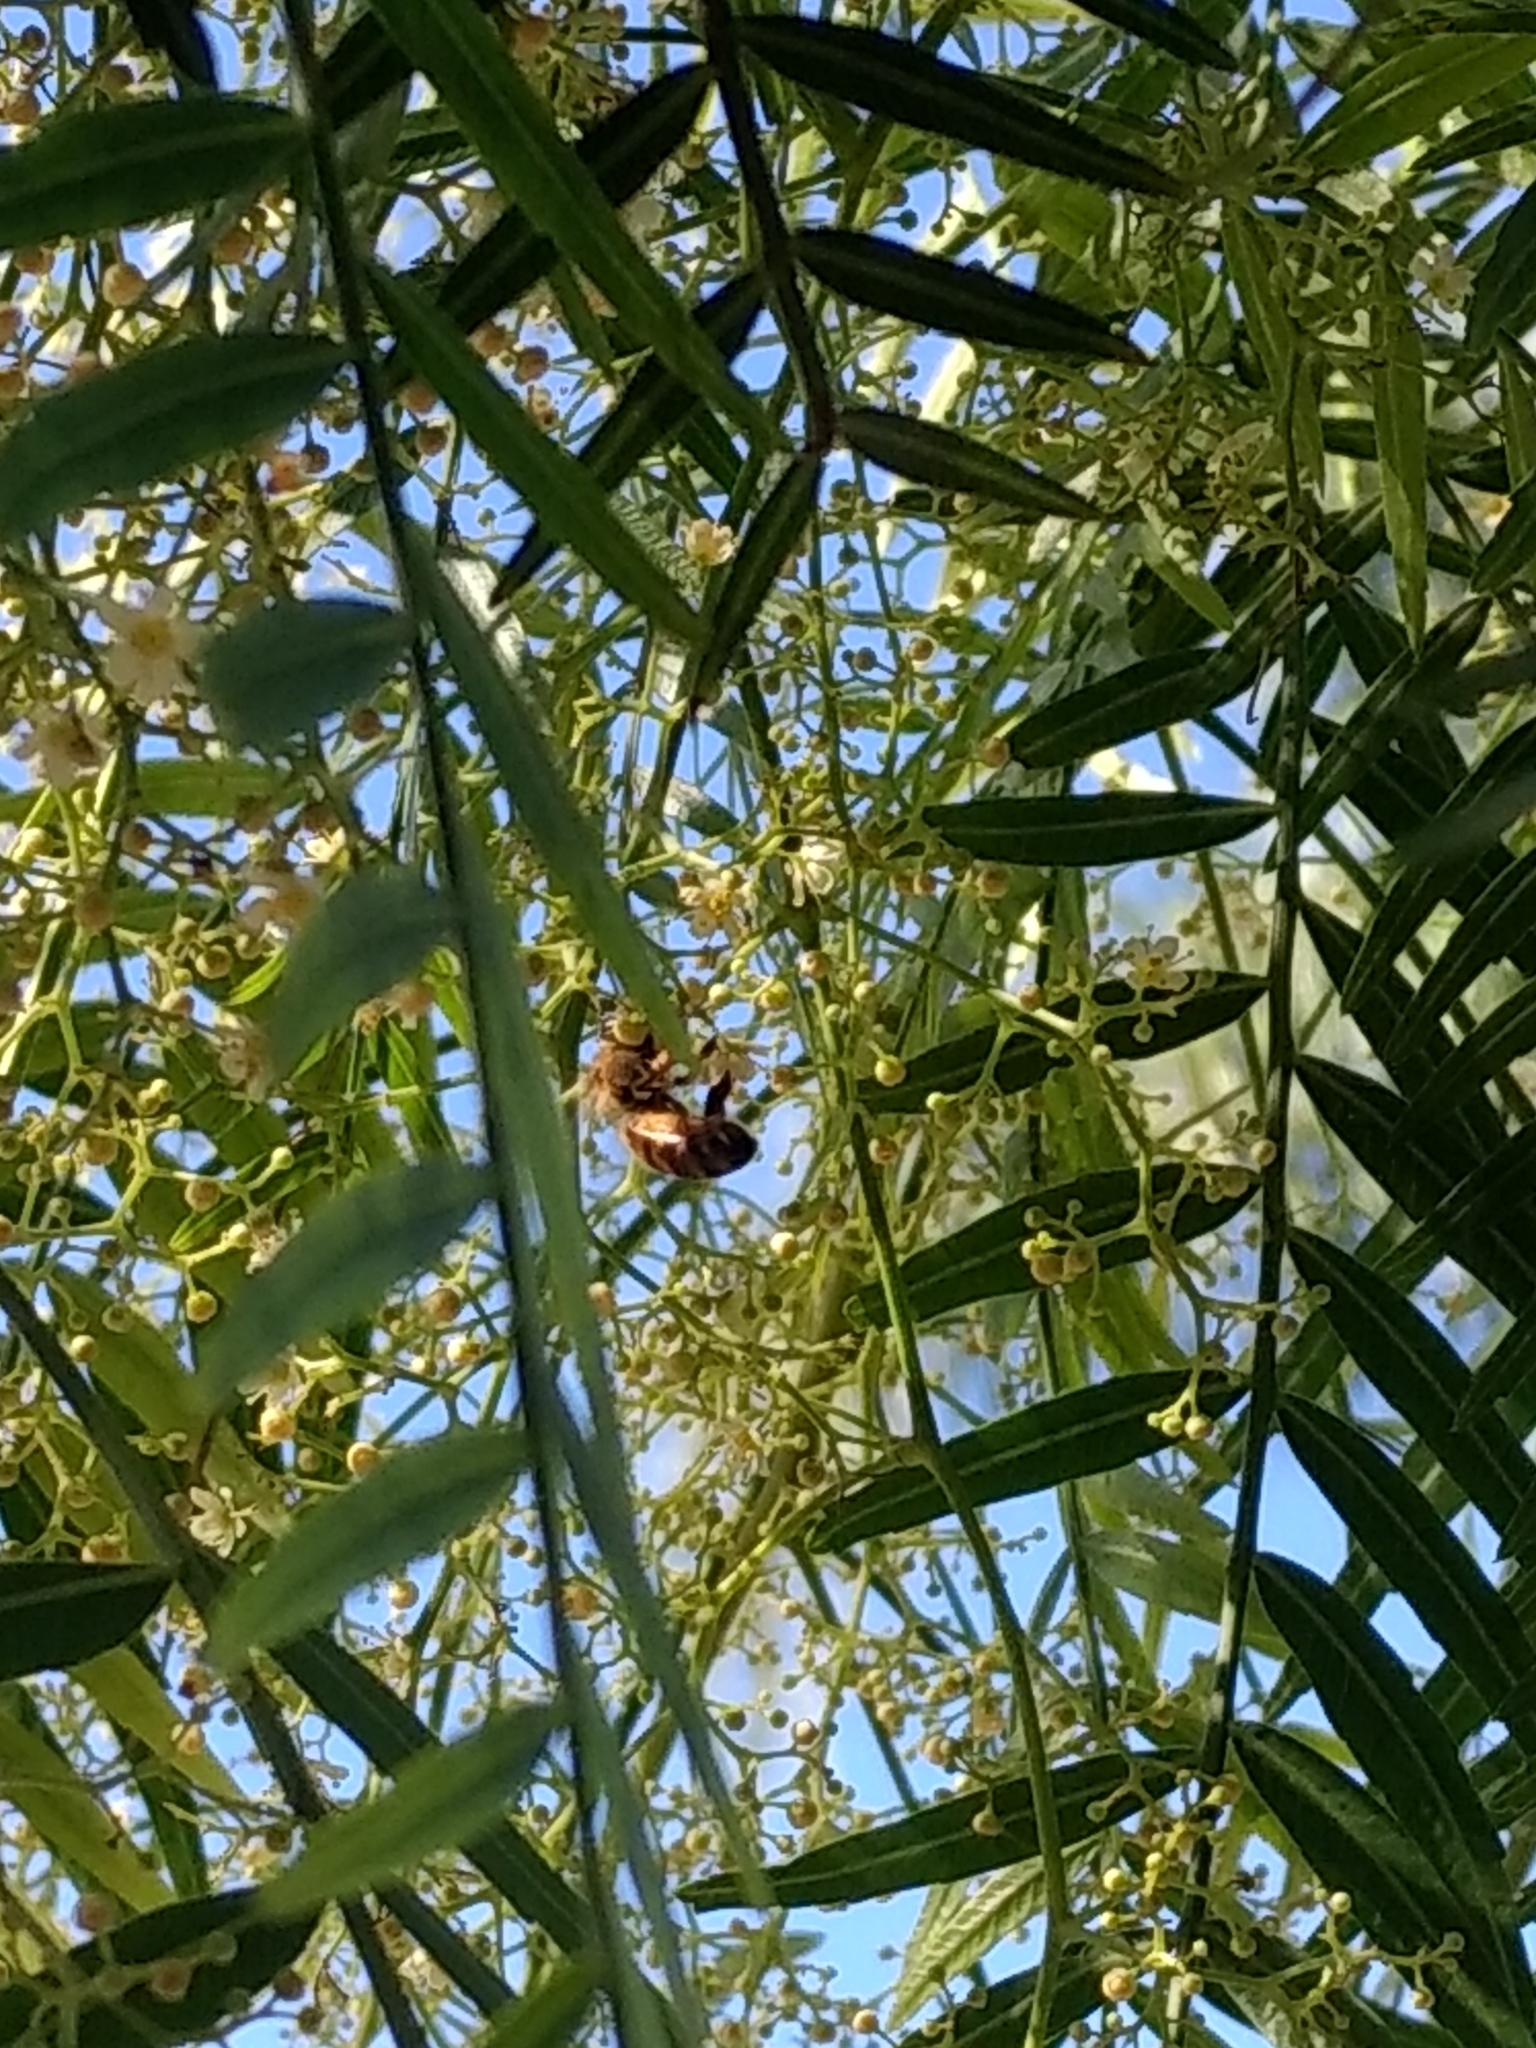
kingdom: Animalia
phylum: Arthropoda
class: Insecta
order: Hymenoptera
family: Apidae
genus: Apis
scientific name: Apis mellifera
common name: Honey bee
